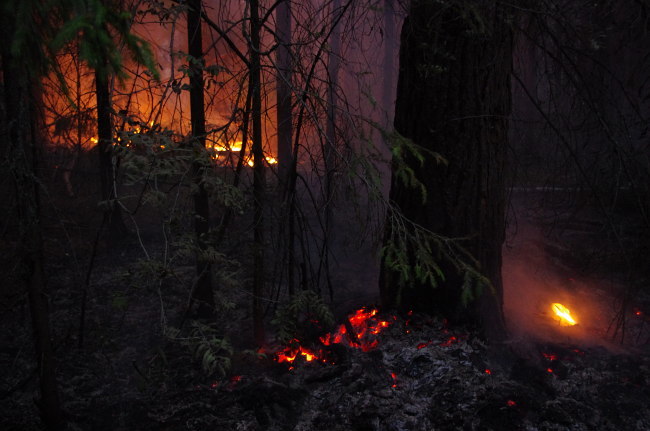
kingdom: Plantae
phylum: Tracheophyta
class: Pinopsida
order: Pinales
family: Pinaceae
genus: Picea
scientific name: Picea abies
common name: Norway spruce
